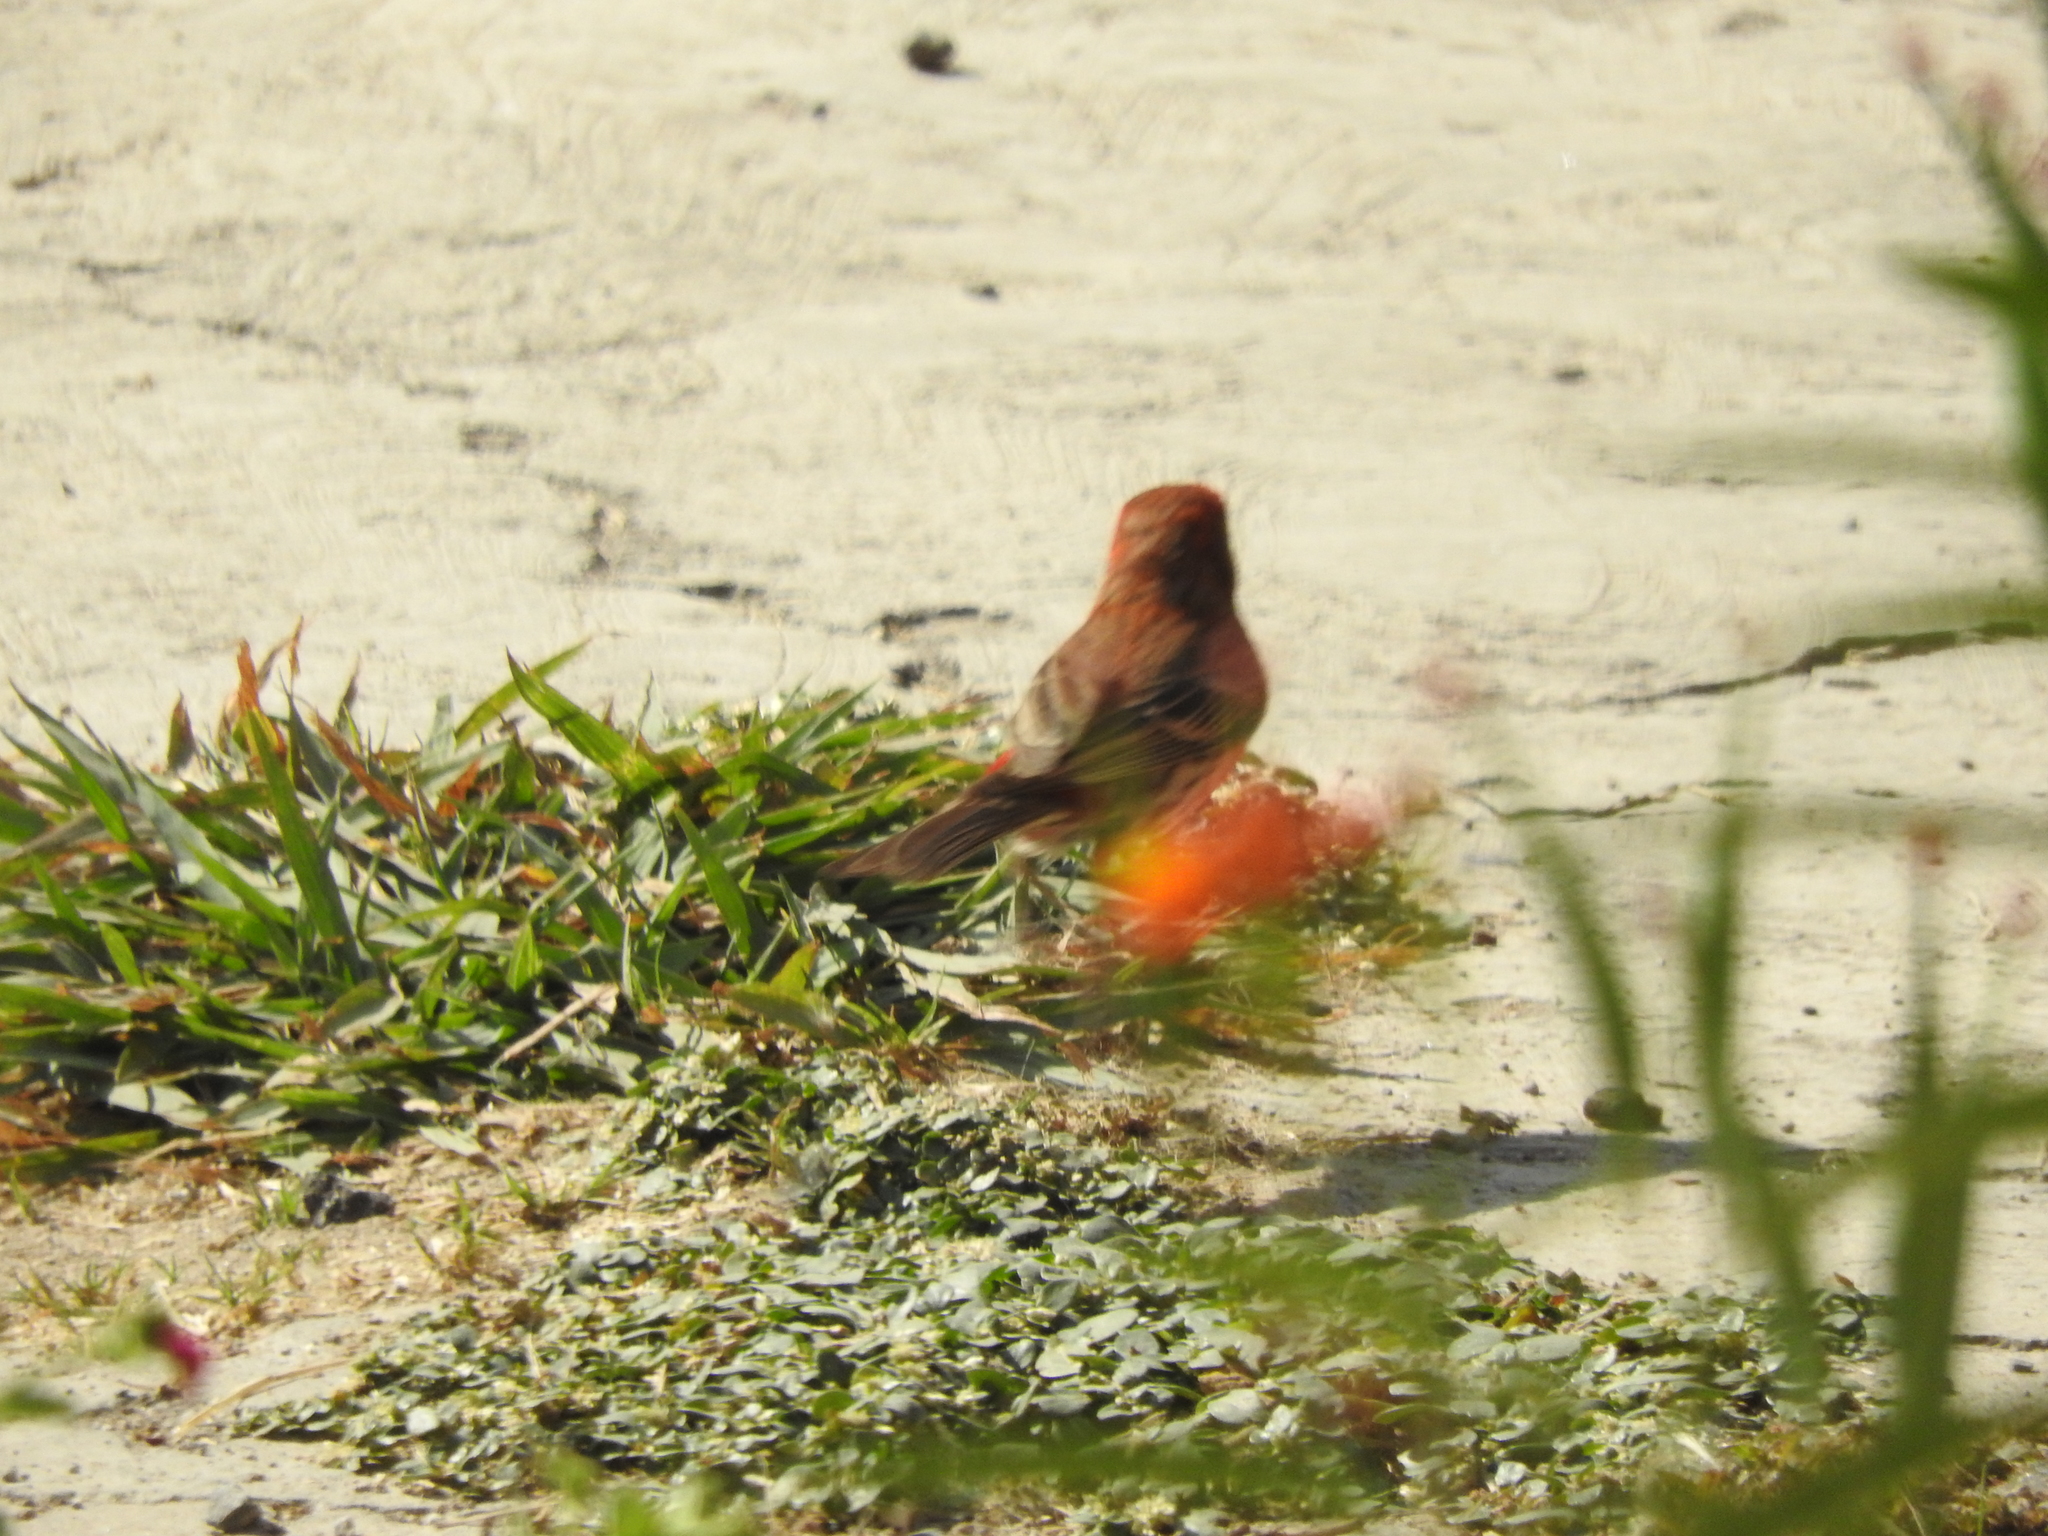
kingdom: Animalia
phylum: Chordata
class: Aves
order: Passeriformes
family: Fringillidae
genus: Haemorhous
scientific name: Haemorhous mexicanus
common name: House finch
